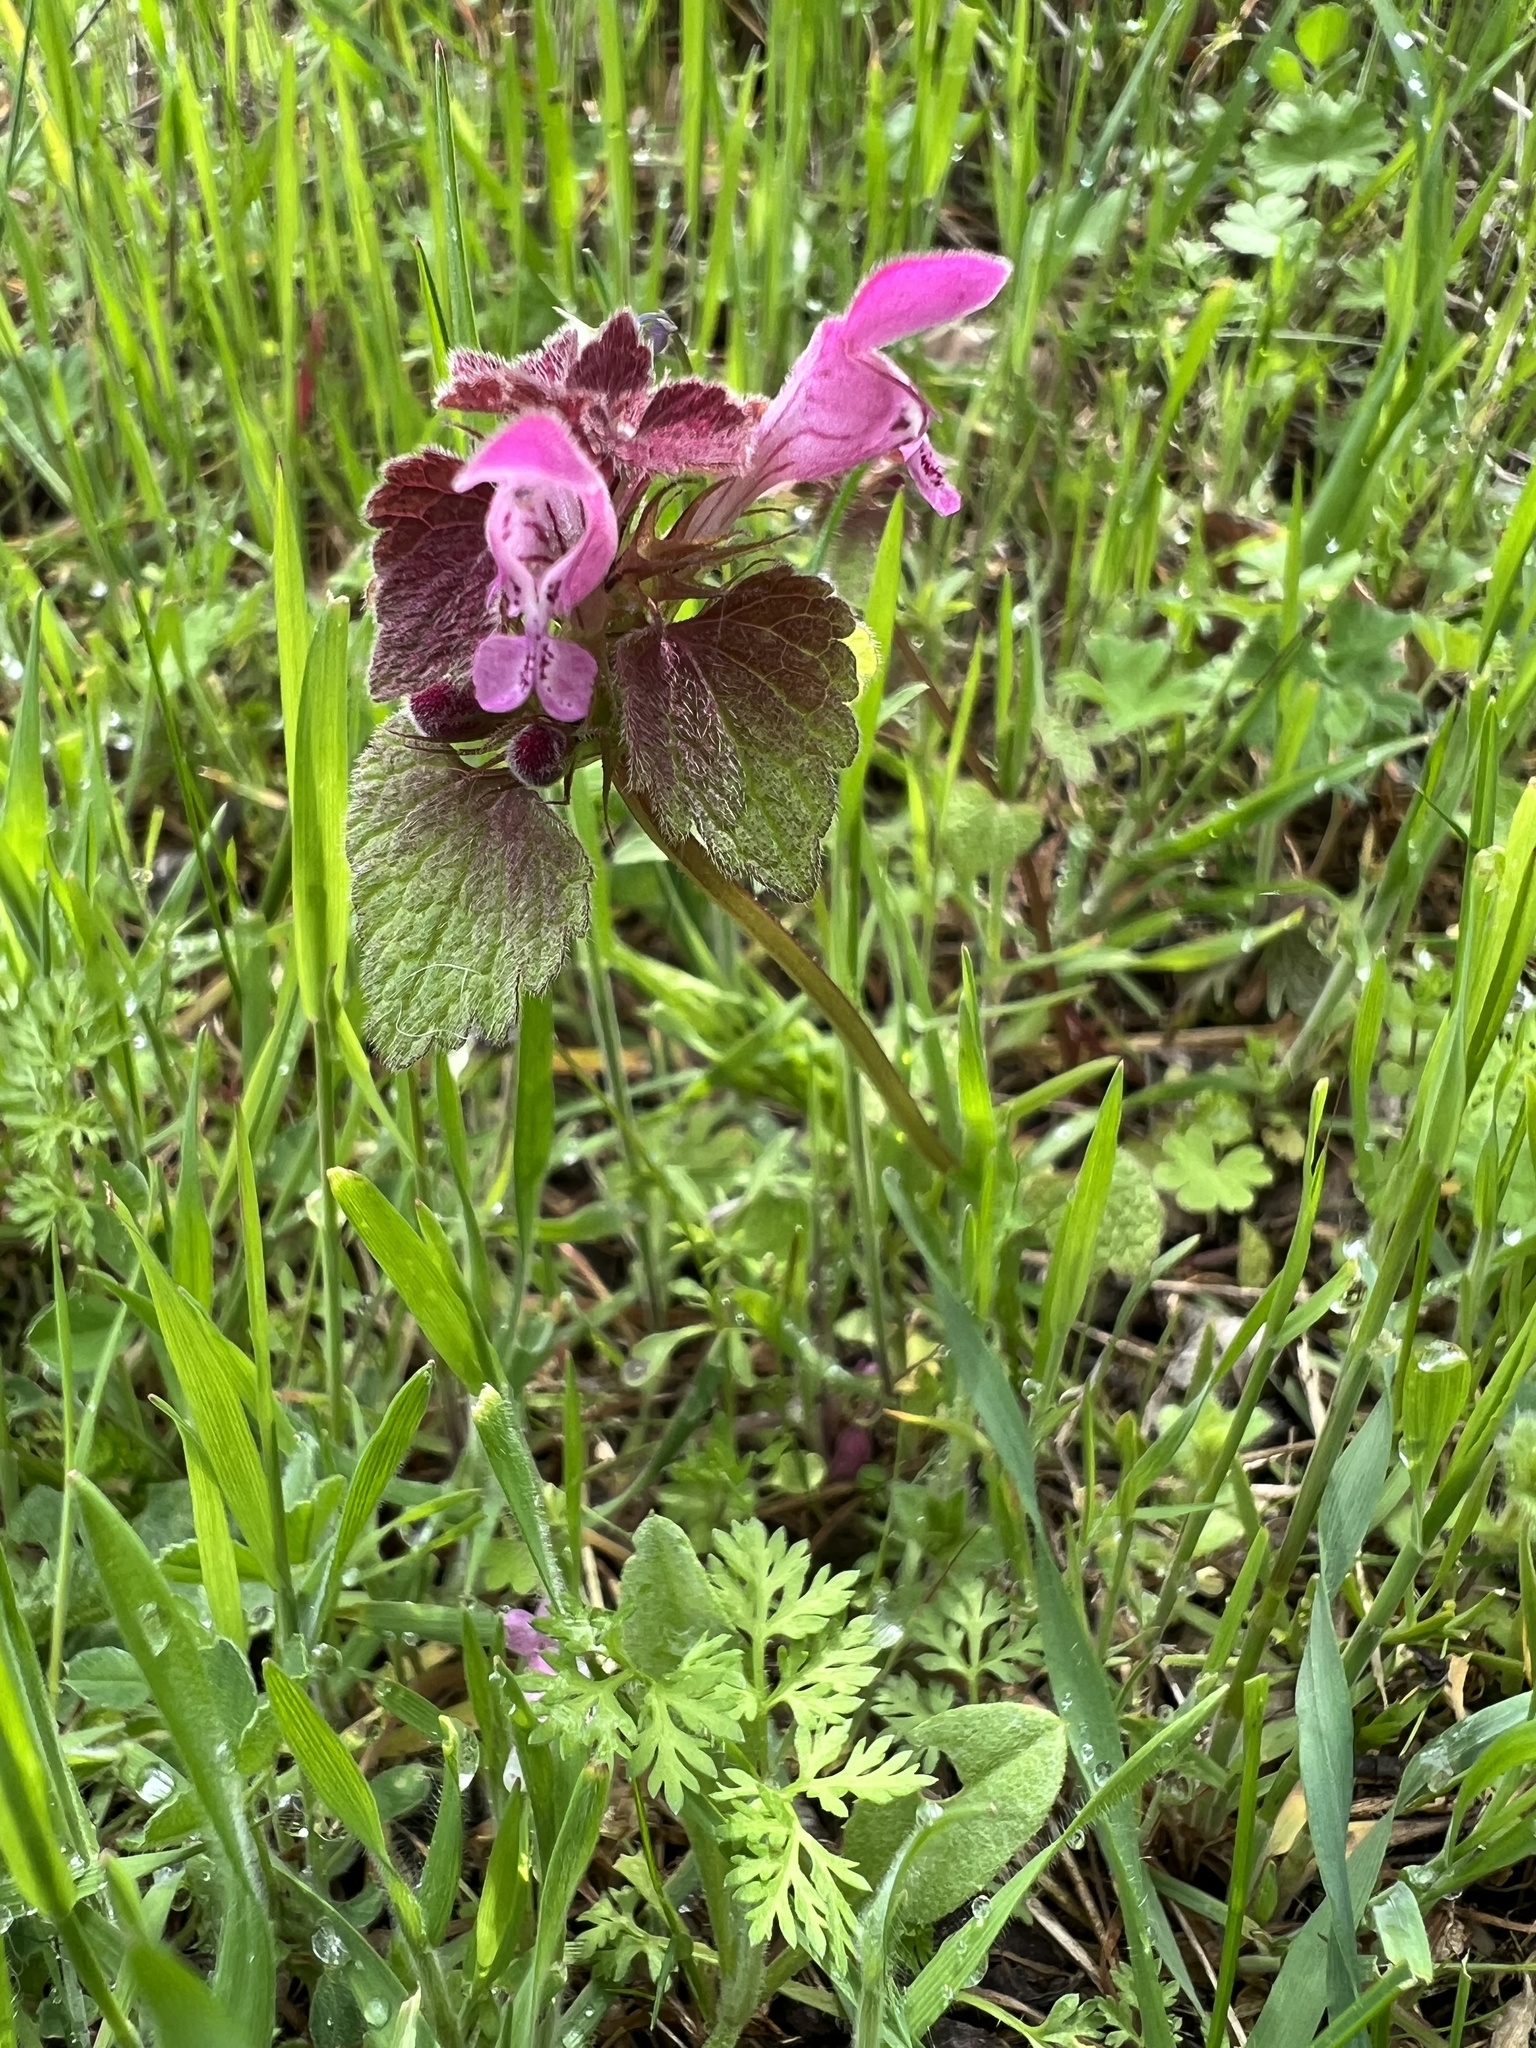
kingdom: Plantae
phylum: Tracheophyta
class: Magnoliopsida
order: Lamiales
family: Lamiaceae
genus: Lamium
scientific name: Lamium purpureum
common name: Red dead-nettle
